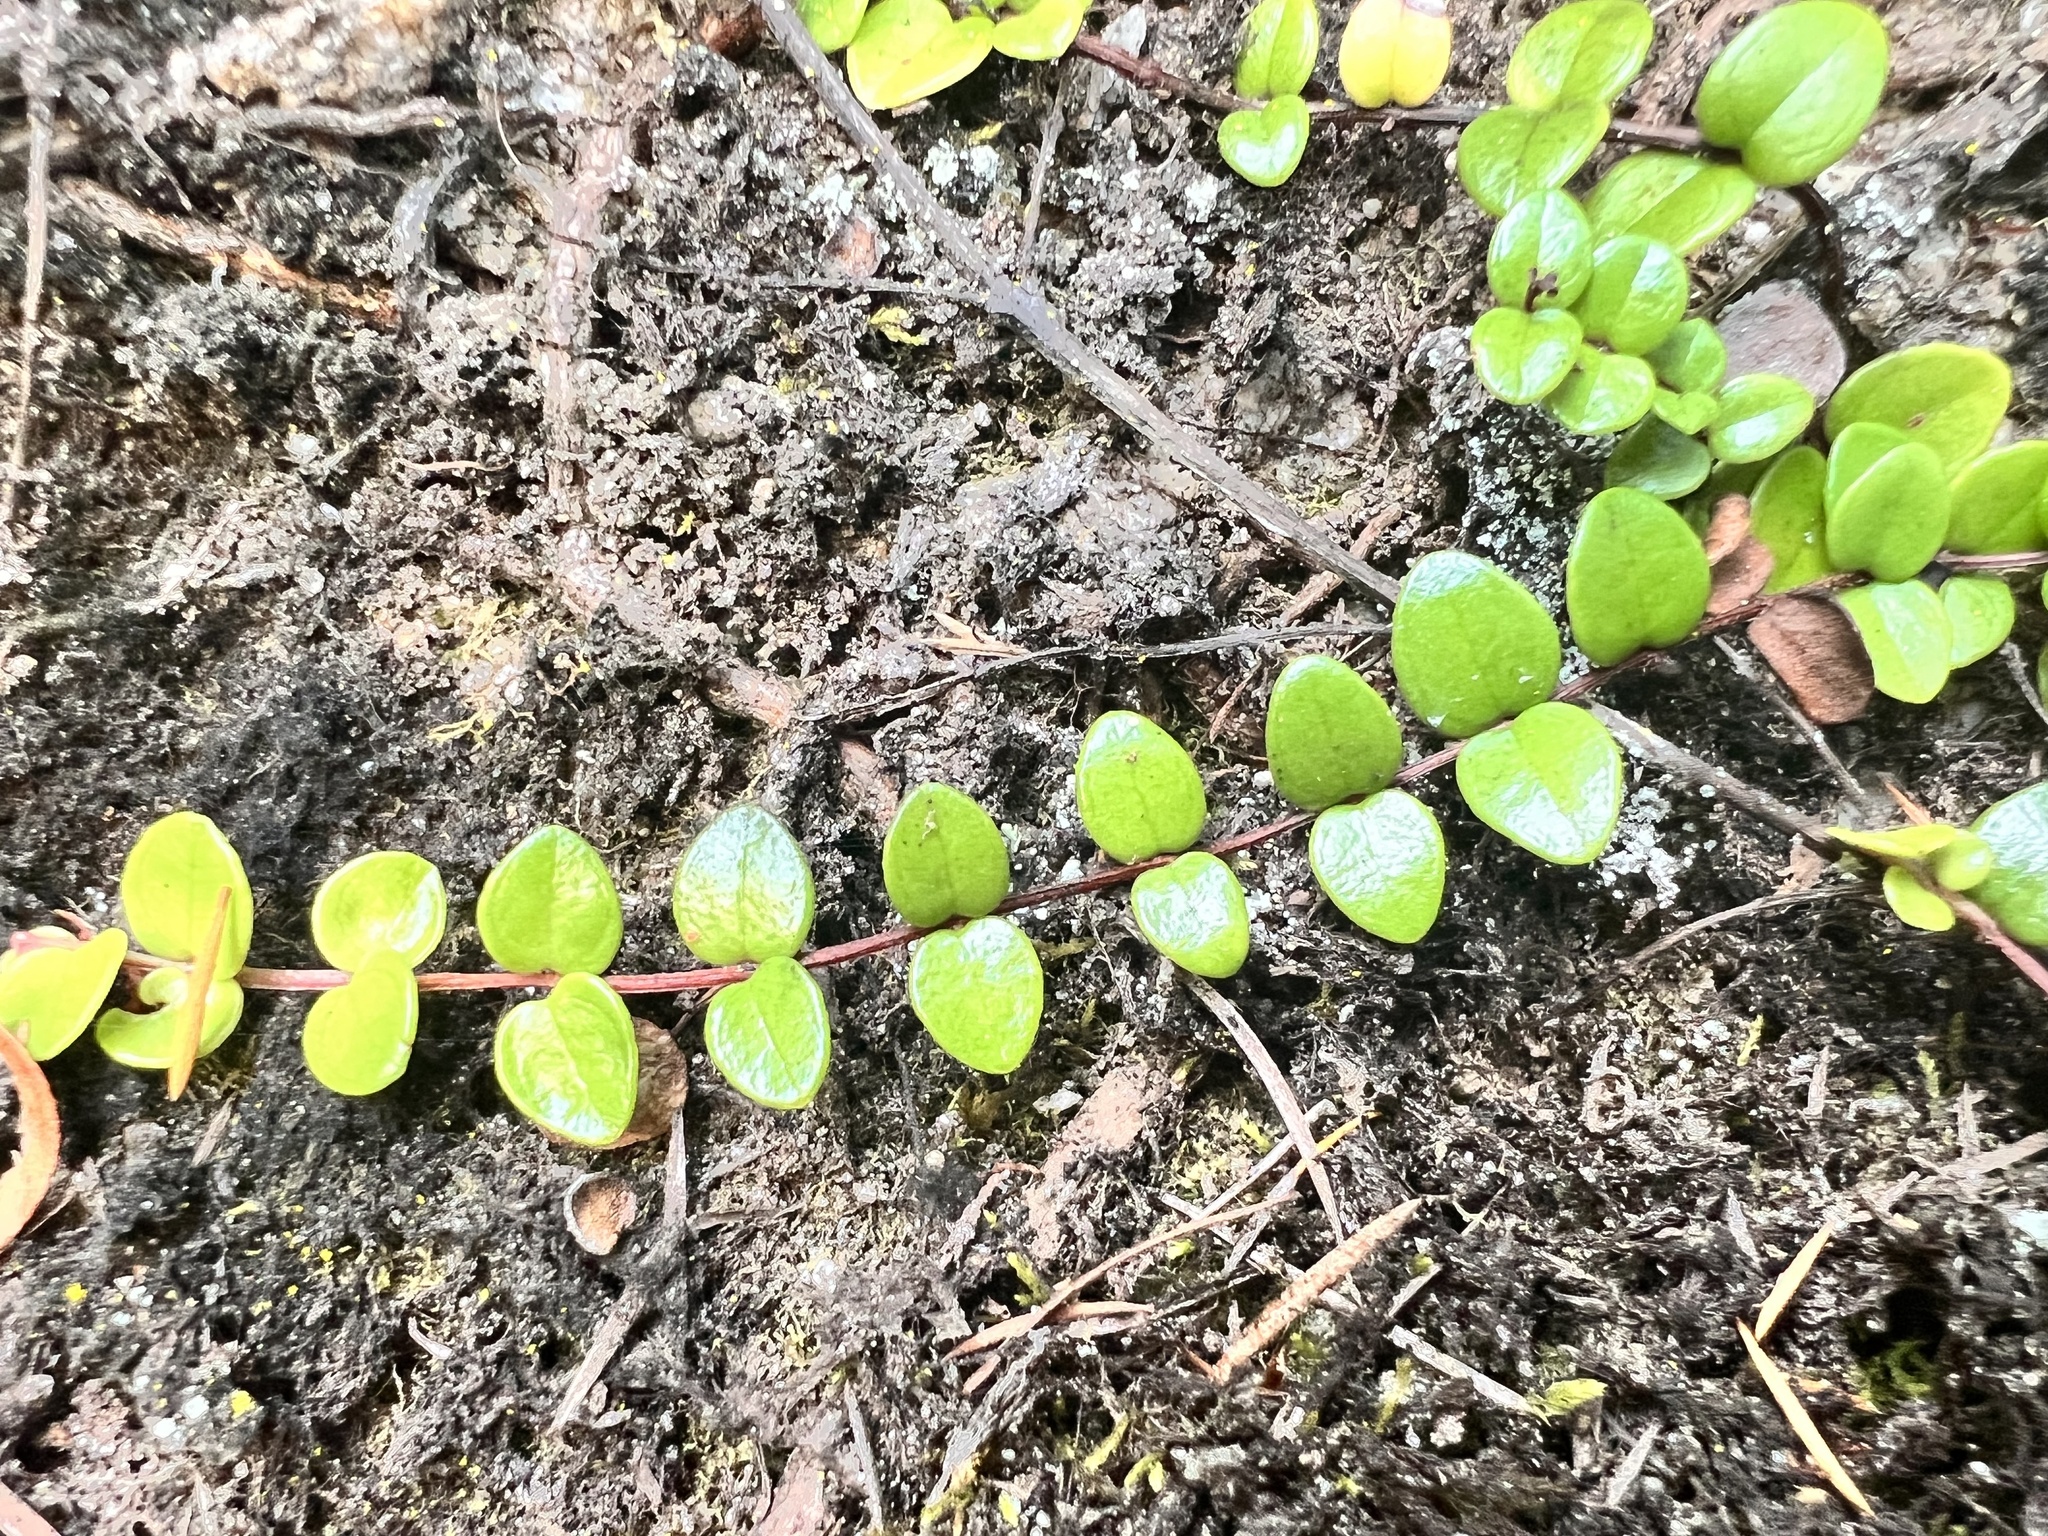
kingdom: Plantae
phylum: Tracheophyta
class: Magnoliopsida
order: Myrtales
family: Myrtaceae
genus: Metrosideros
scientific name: Metrosideros perforata
